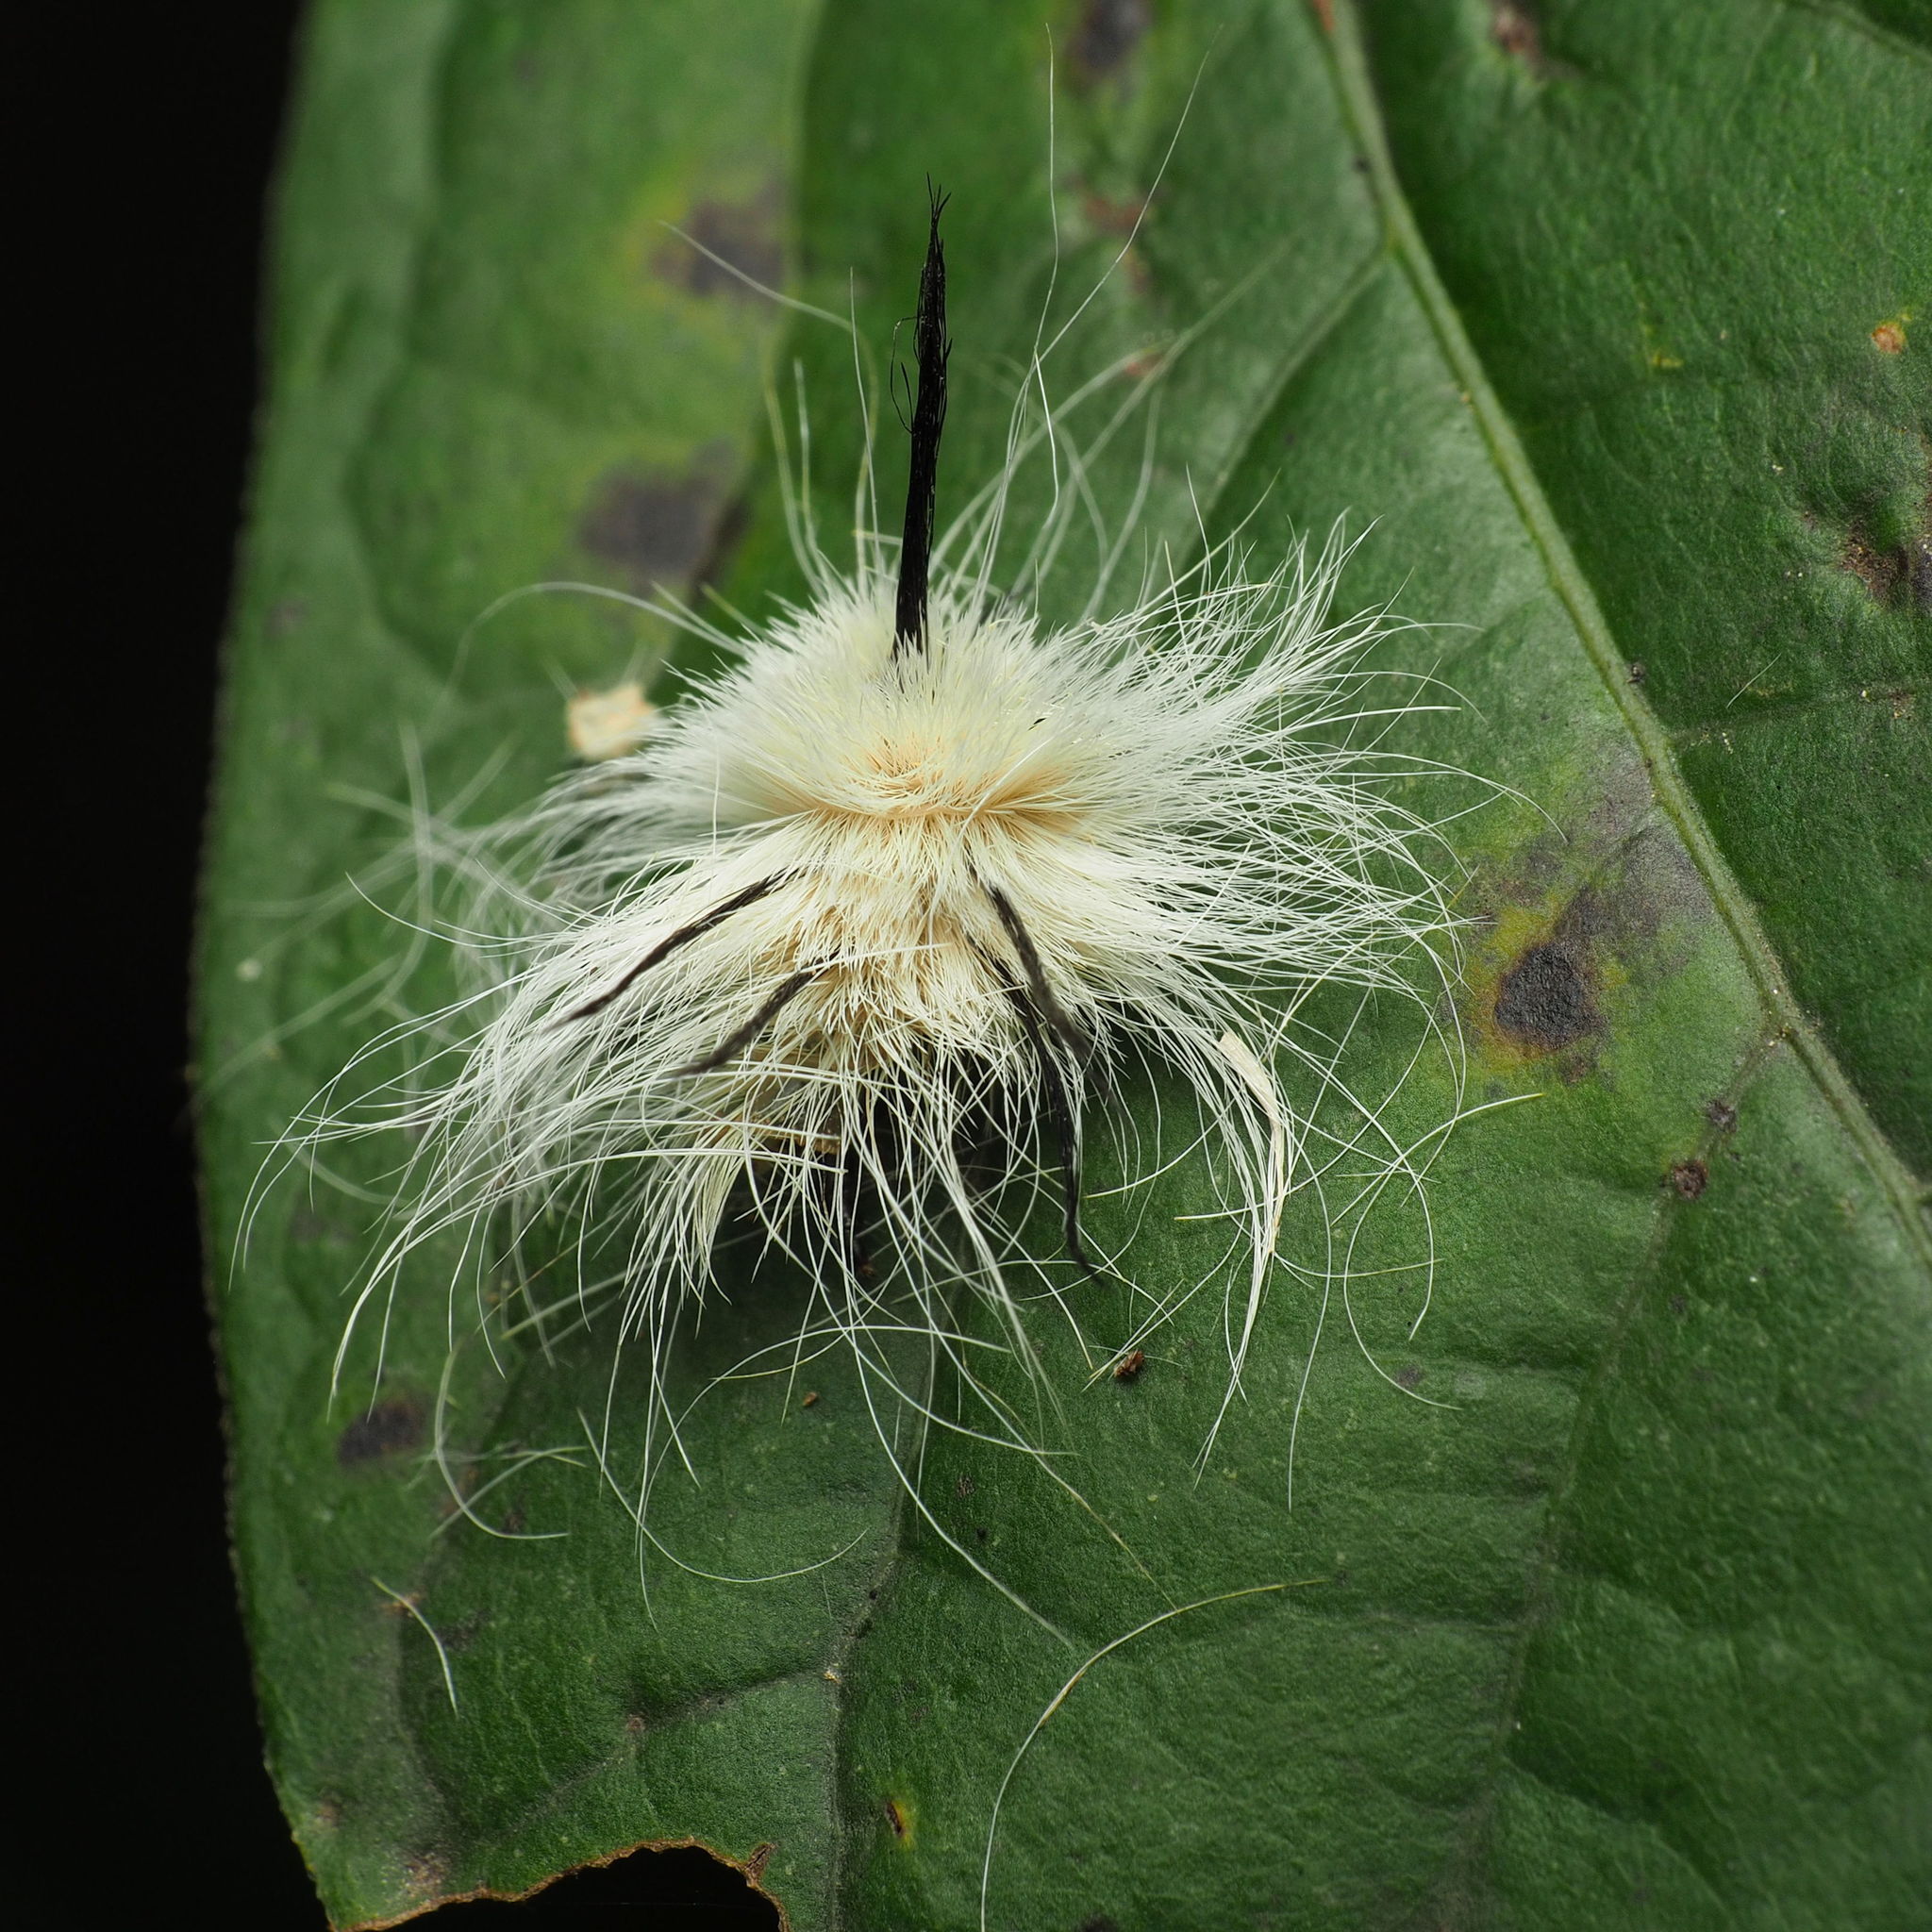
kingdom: Animalia
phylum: Arthropoda
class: Insecta
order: Lepidoptera
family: Noctuidae
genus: Acronicta
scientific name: Acronicta americana
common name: American dagger
